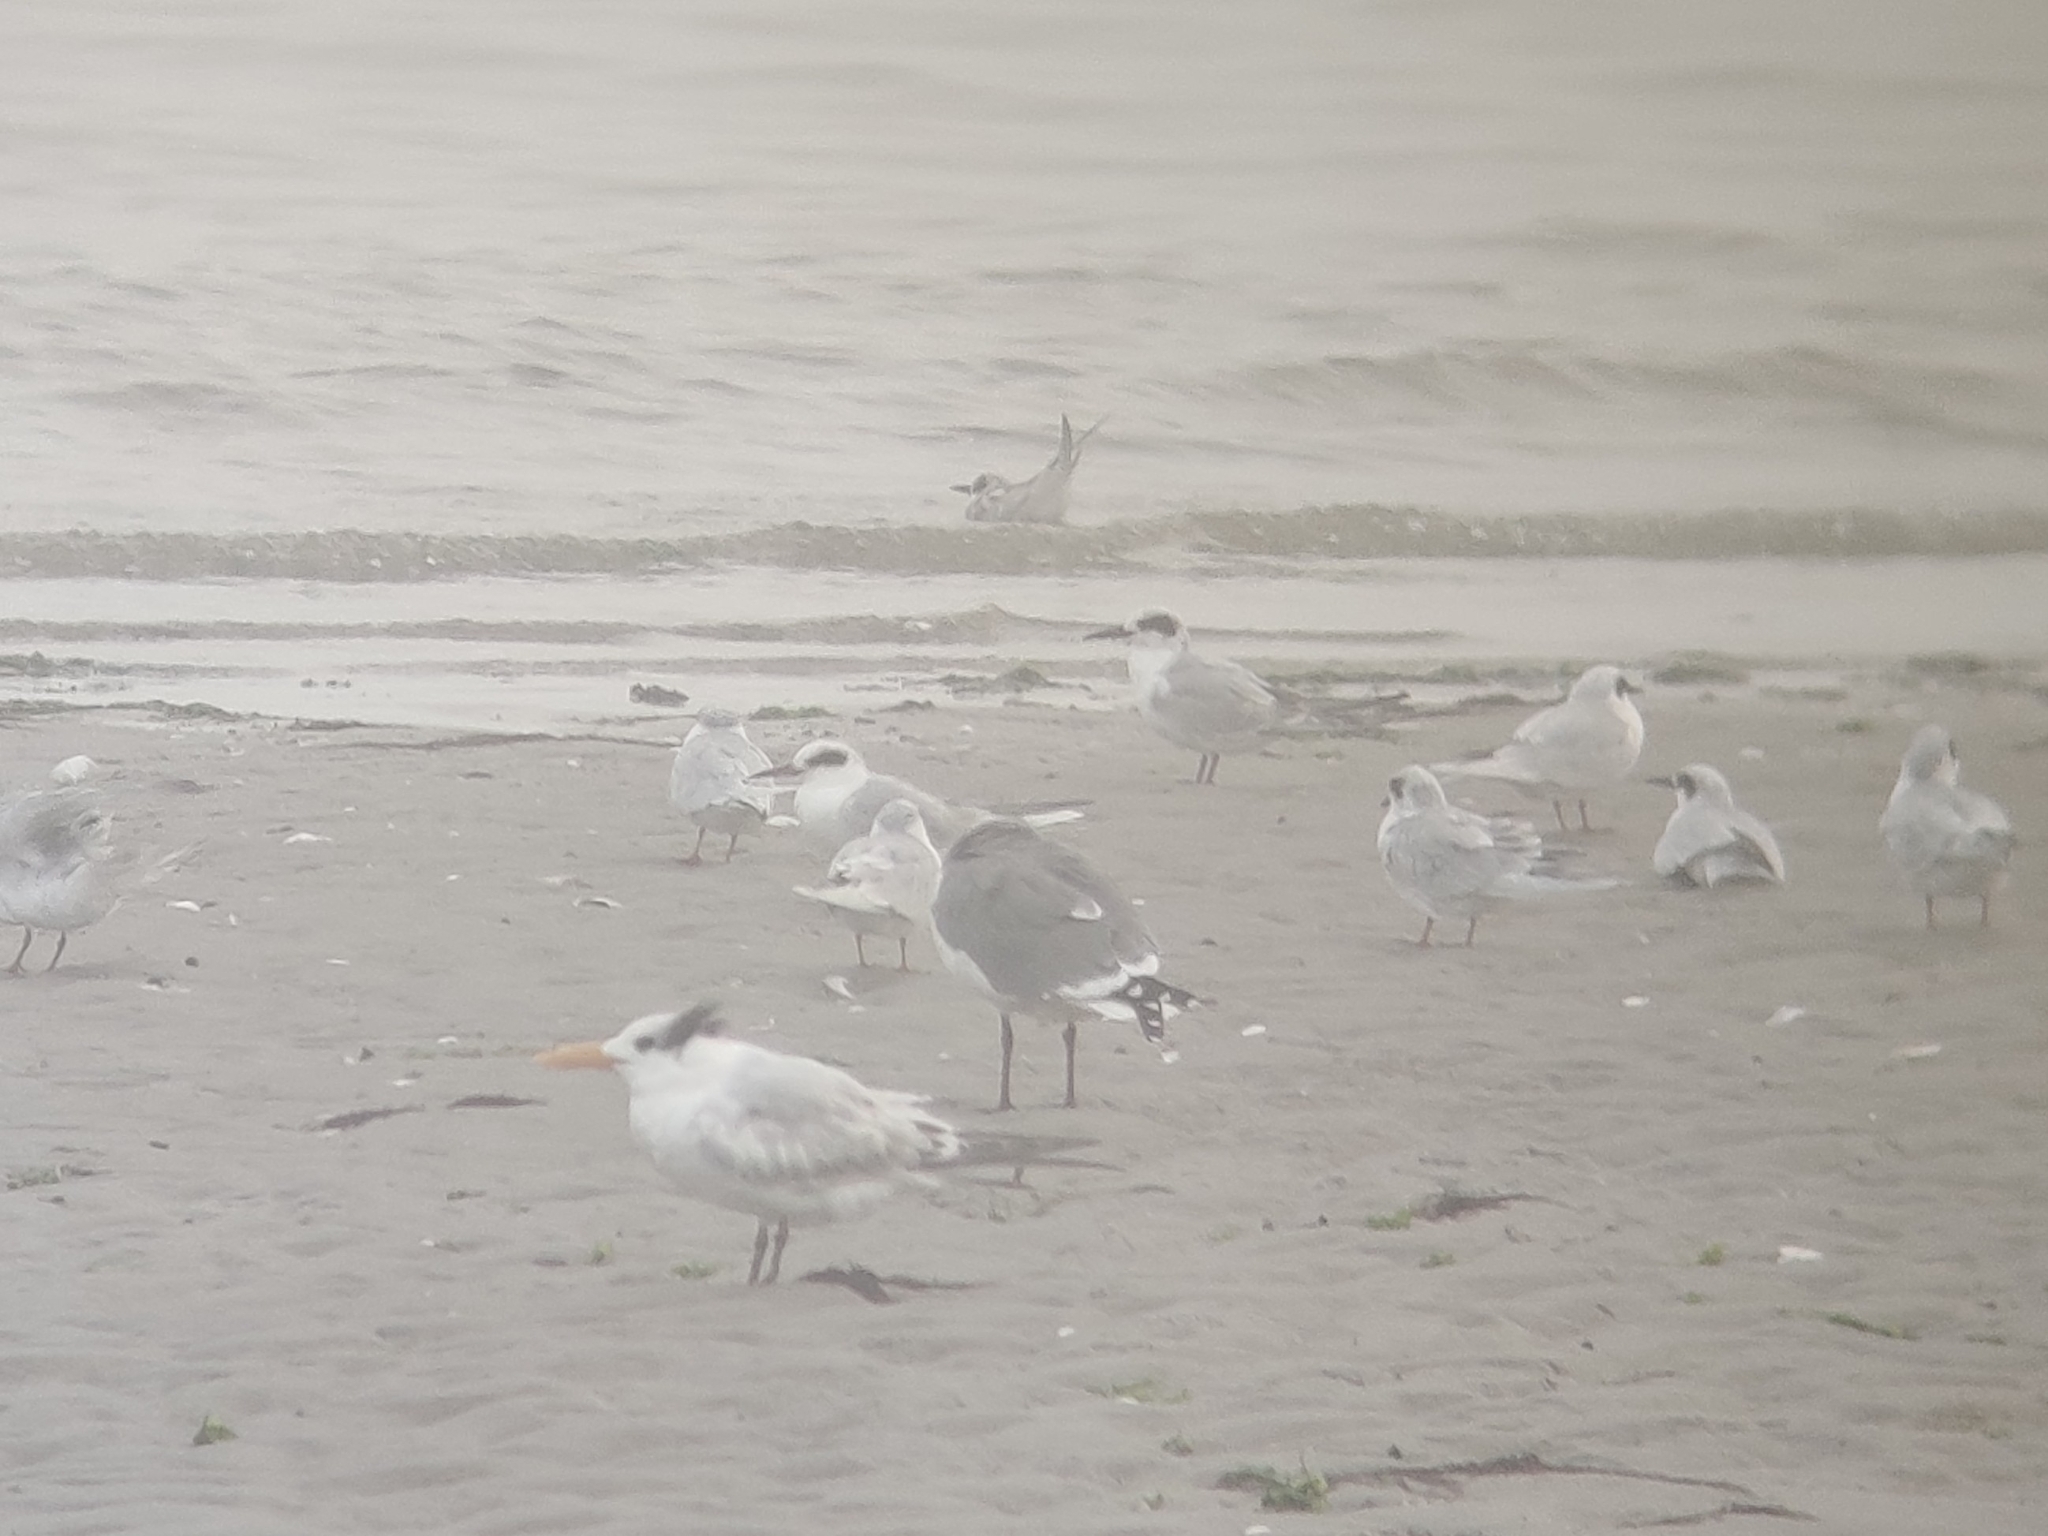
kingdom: Animalia
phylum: Chordata
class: Aves
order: Charadriiformes
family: Laridae
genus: Sterna
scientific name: Sterna forsteri
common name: Forster's tern
